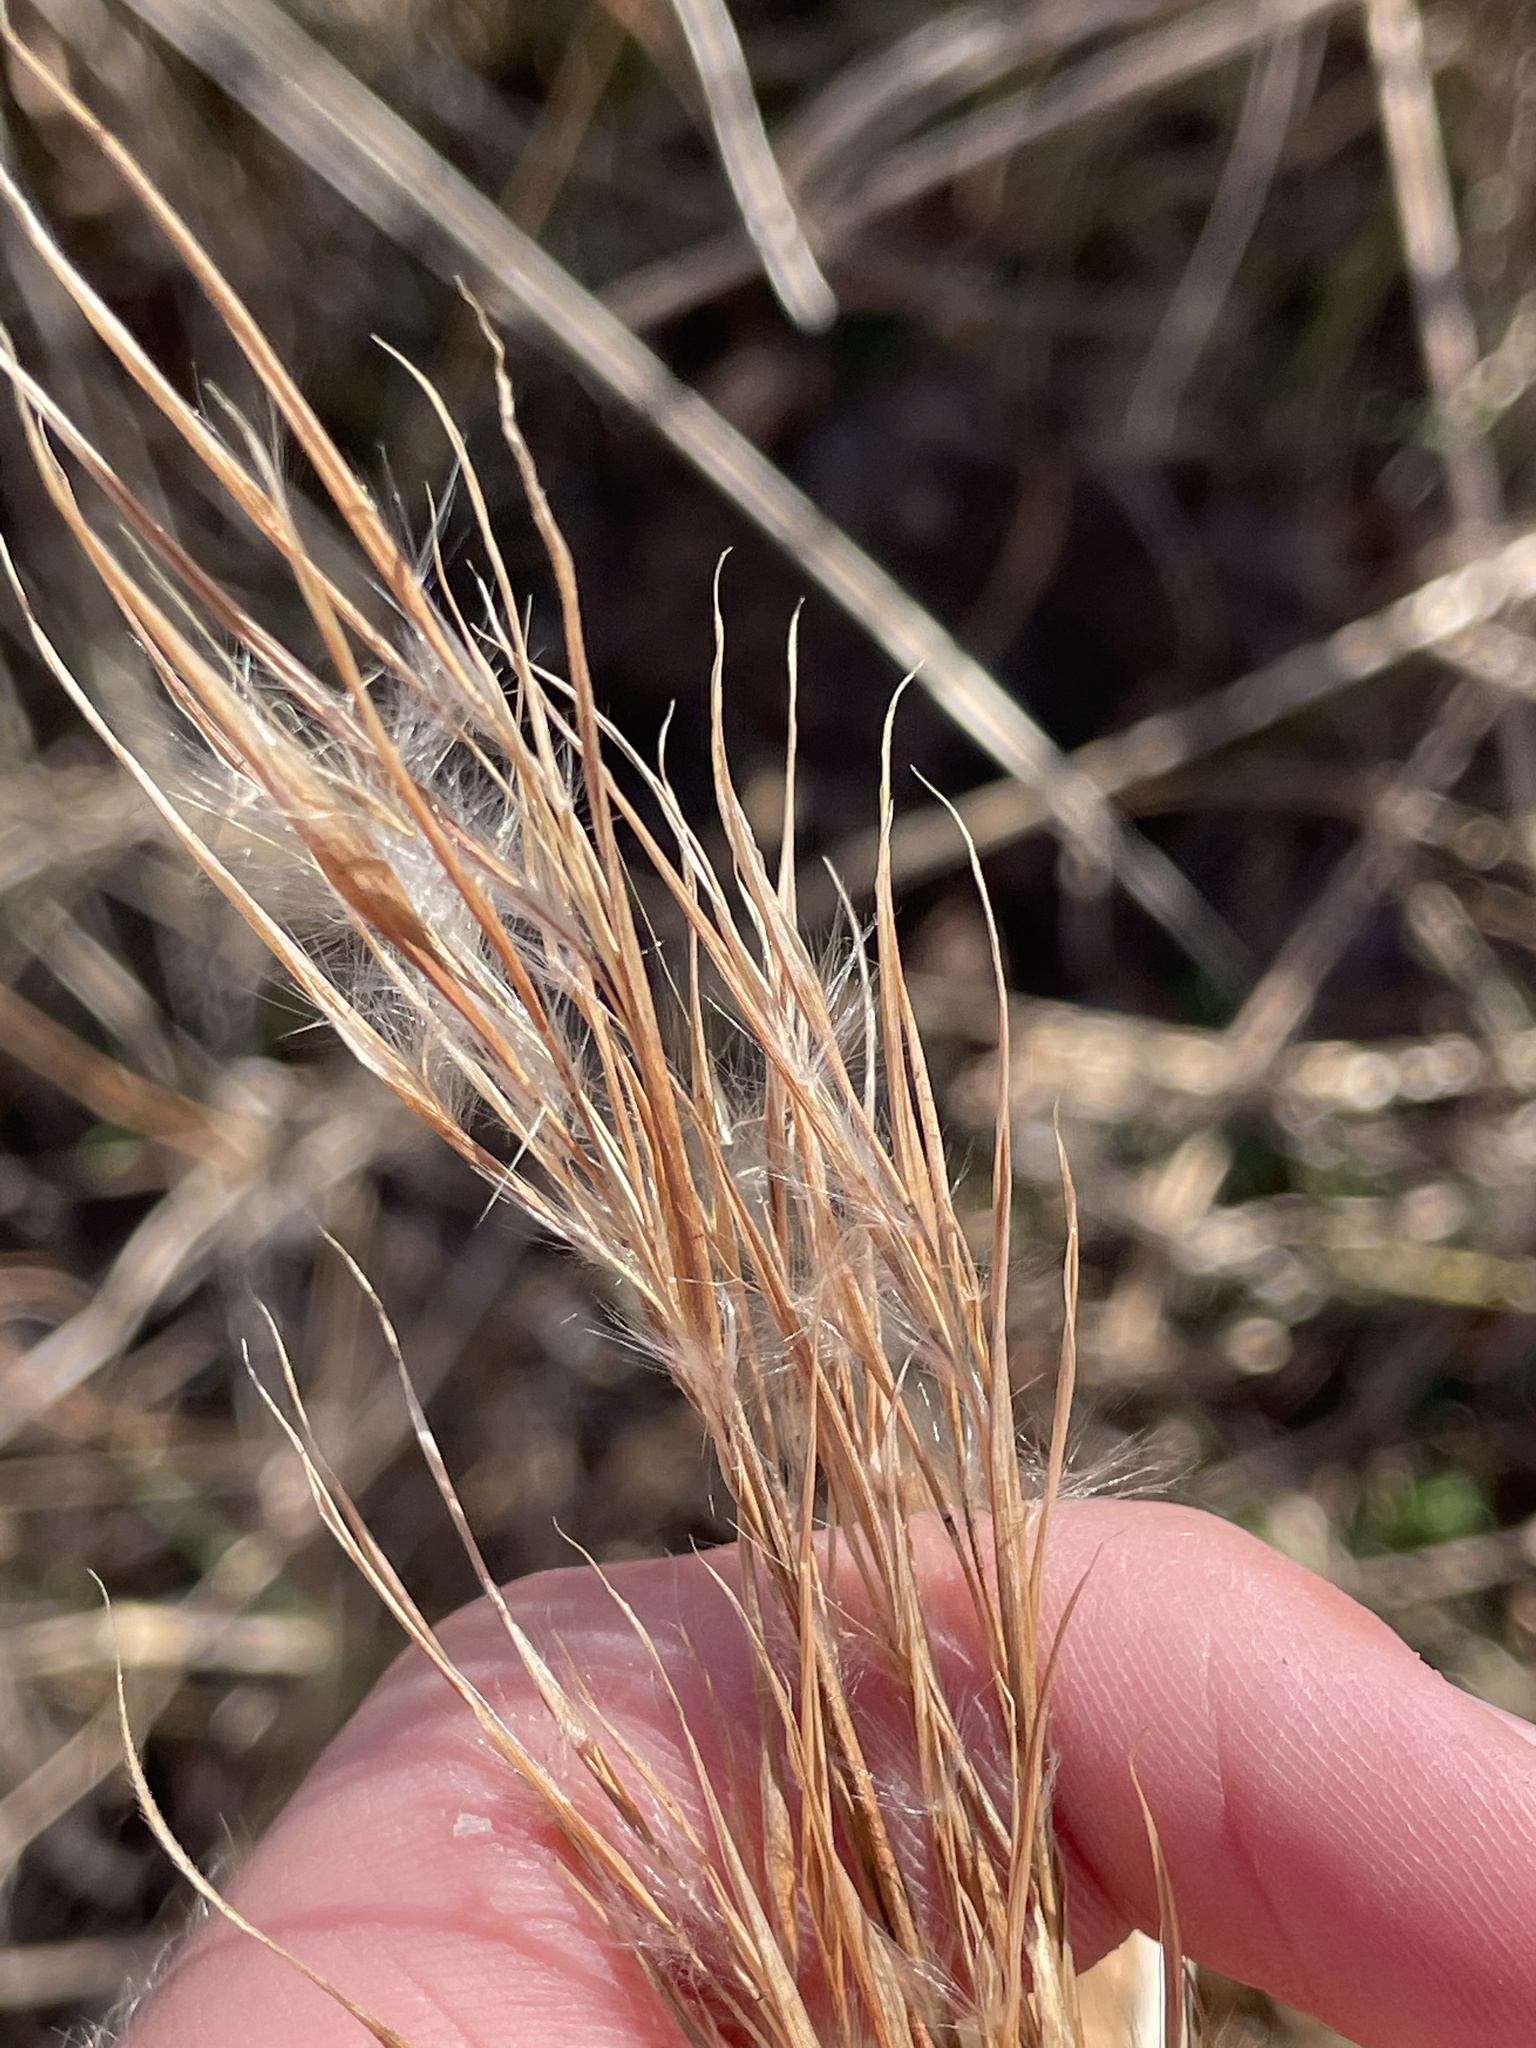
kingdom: Plantae
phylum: Tracheophyta
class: Liliopsida
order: Poales
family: Poaceae
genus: Andropogon
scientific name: Andropogon virginicus
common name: Broomsedge bluestem
